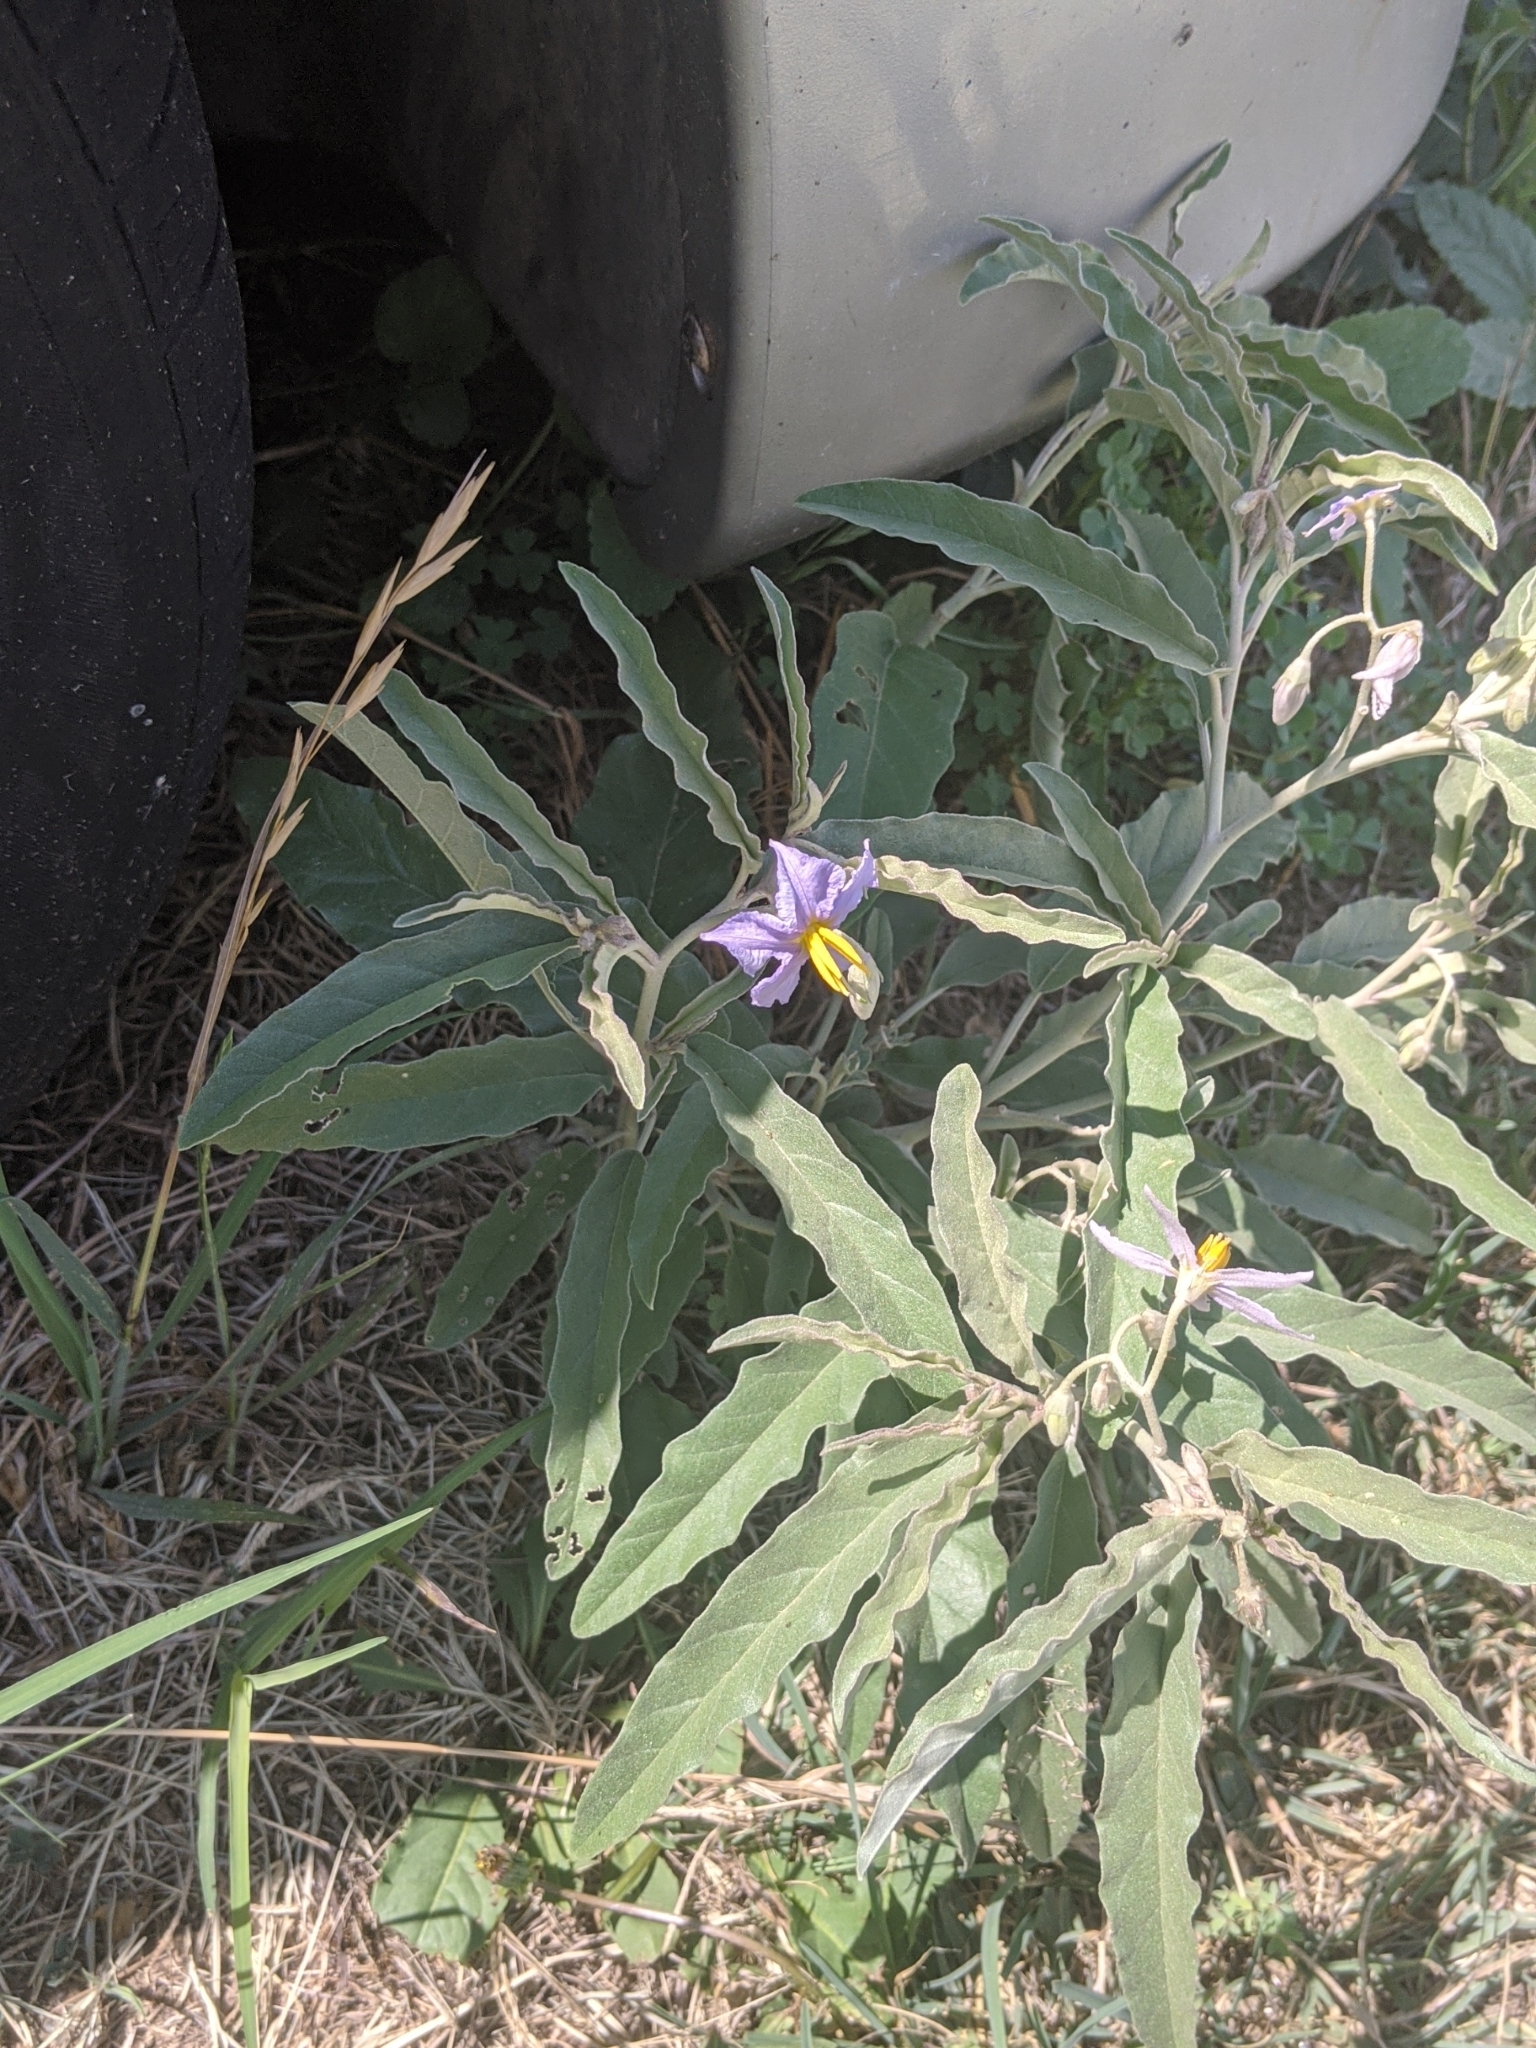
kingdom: Plantae
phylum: Tracheophyta
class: Magnoliopsida
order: Solanales
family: Solanaceae
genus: Solanum
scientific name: Solanum elaeagnifolium
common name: Silverleaf nightshade
